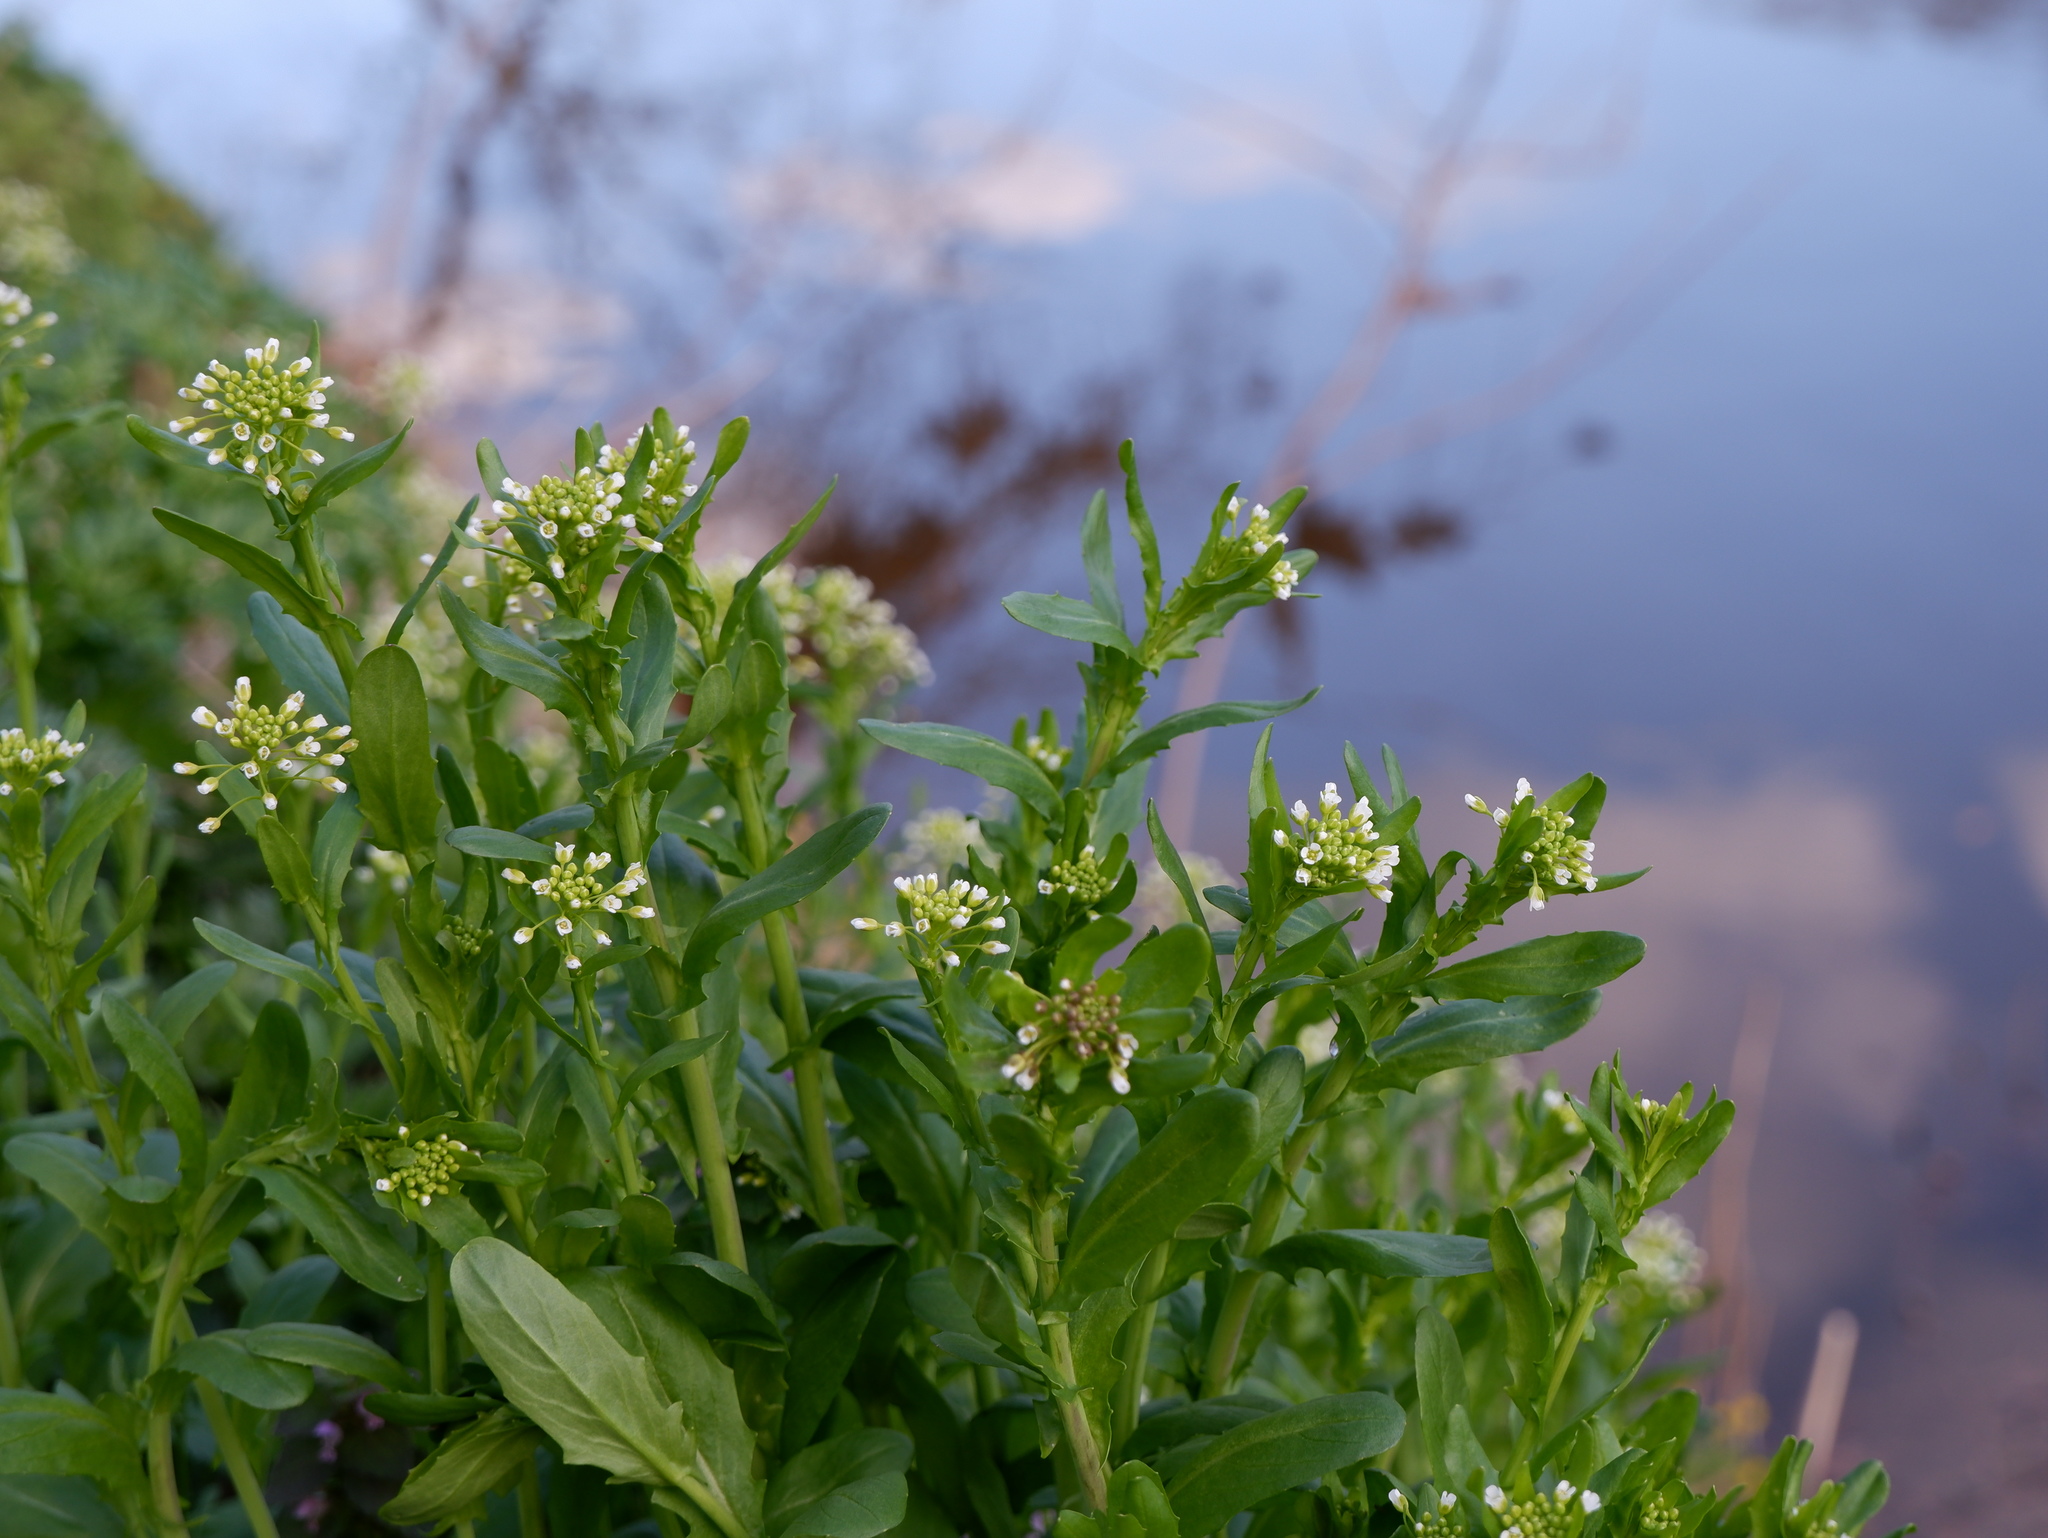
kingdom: Plantae
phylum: Tracheophyta
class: Magnoliopsida
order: Brassicales
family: Brassicaceae
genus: Mummenhoffia
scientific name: Mummenhoffia alliacea
